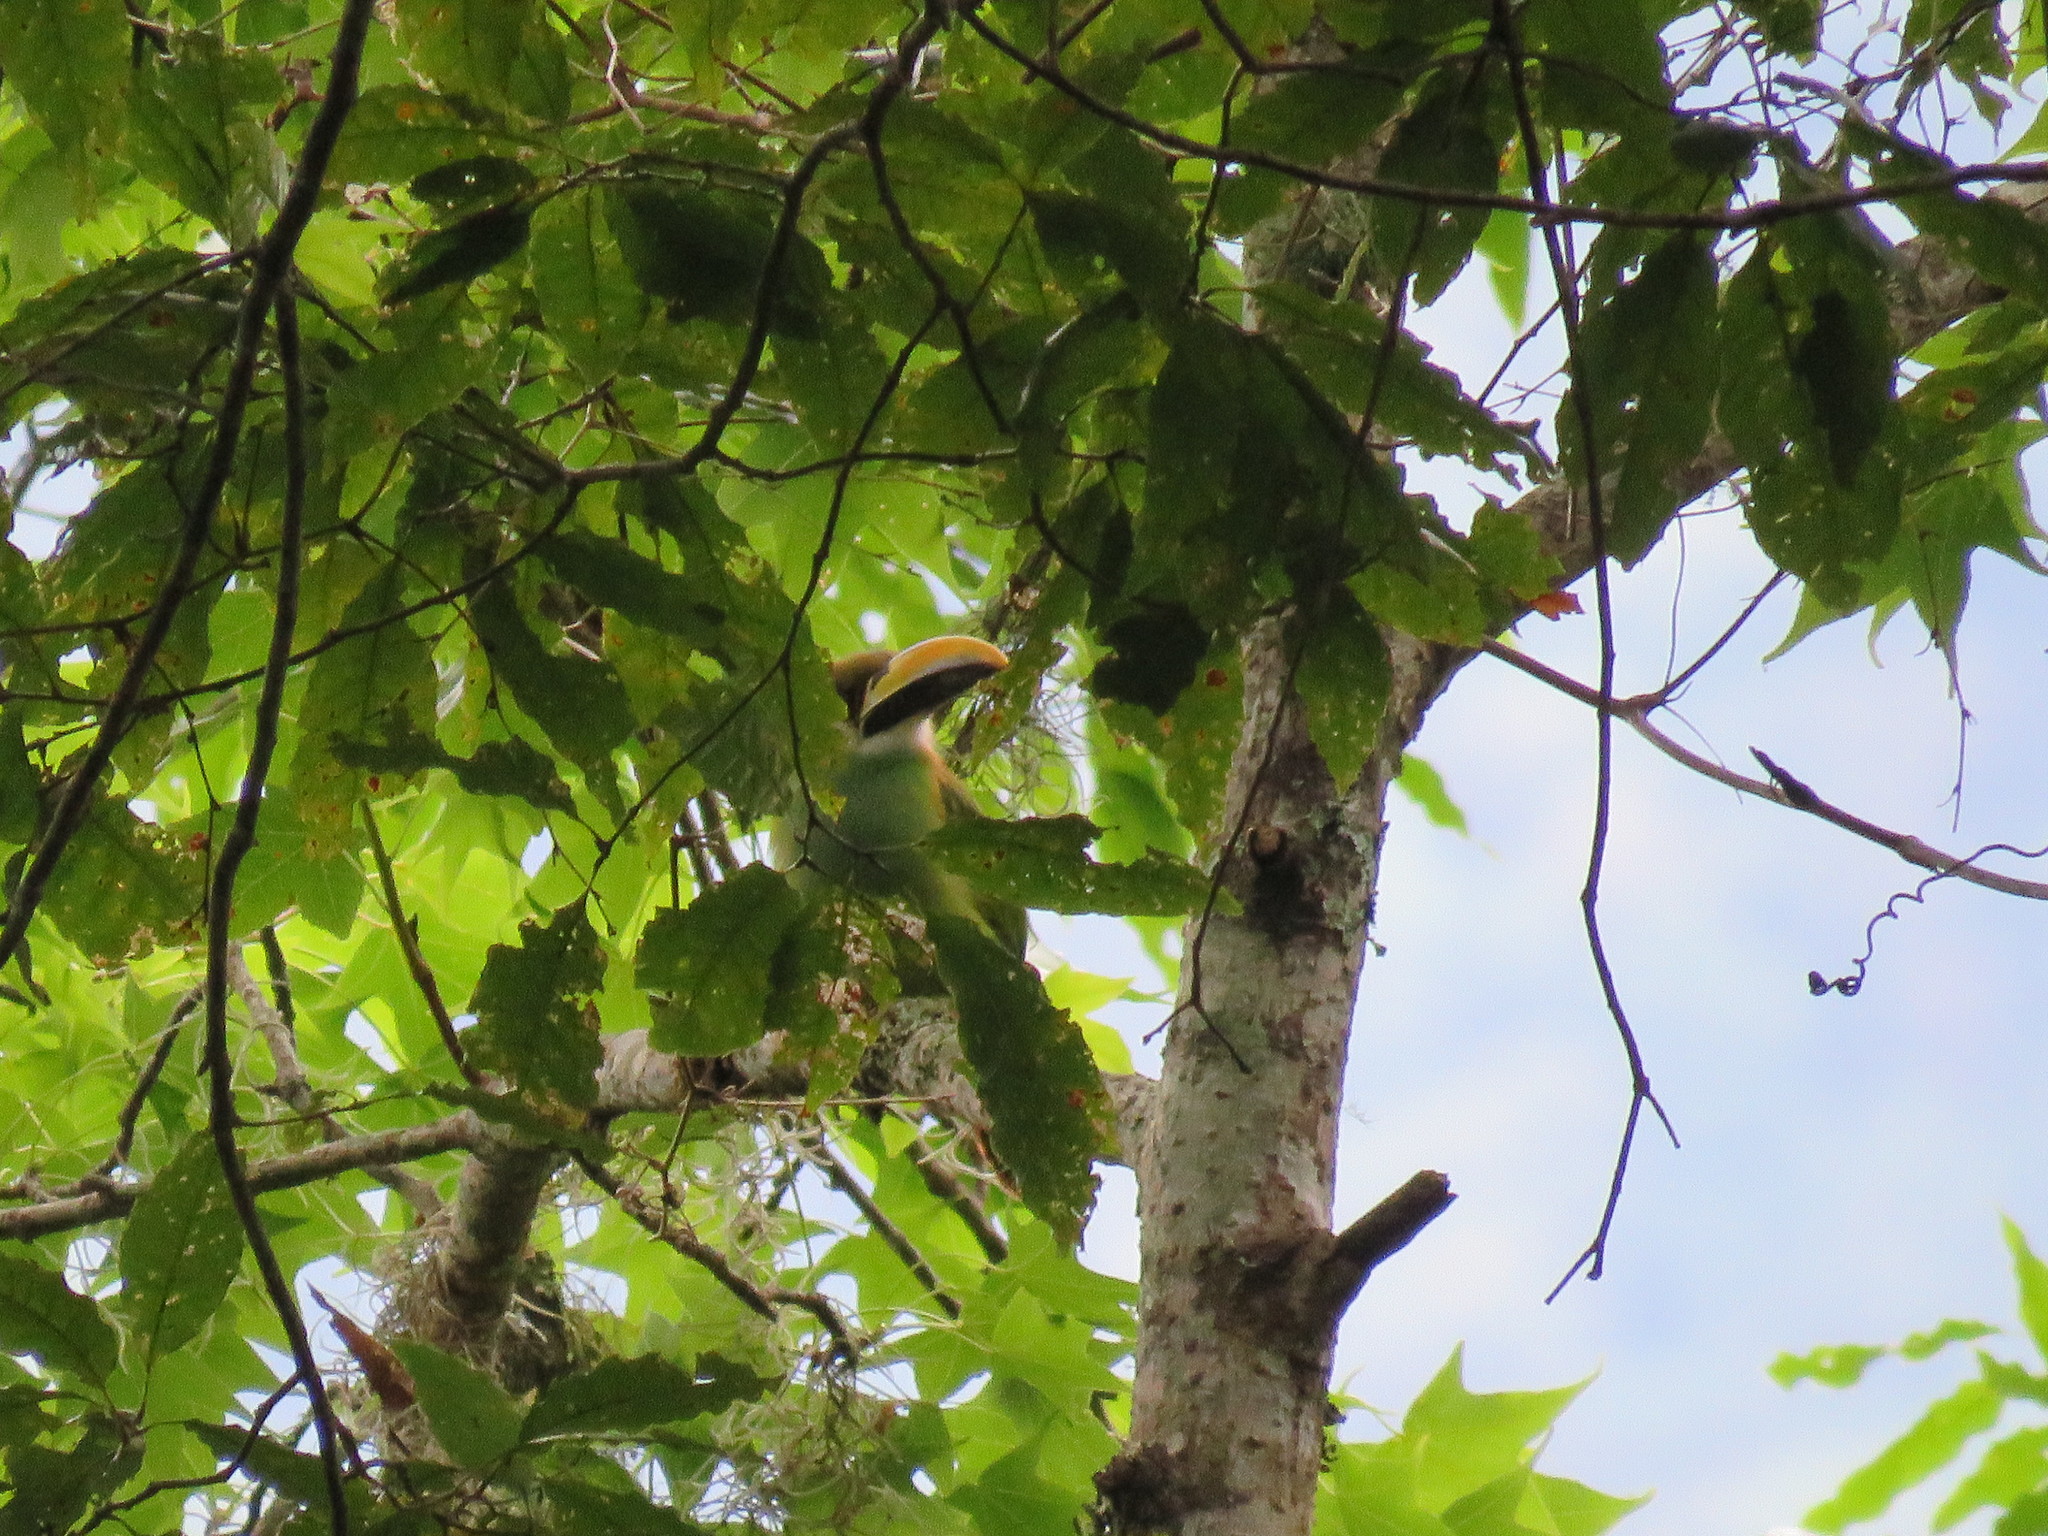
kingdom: Animalia
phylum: Chordata
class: Aves
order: Piciformes
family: Ramphastidae
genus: Aulacorhynchus
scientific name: Aulacorhynchus prasinus
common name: Emerald toucanet
